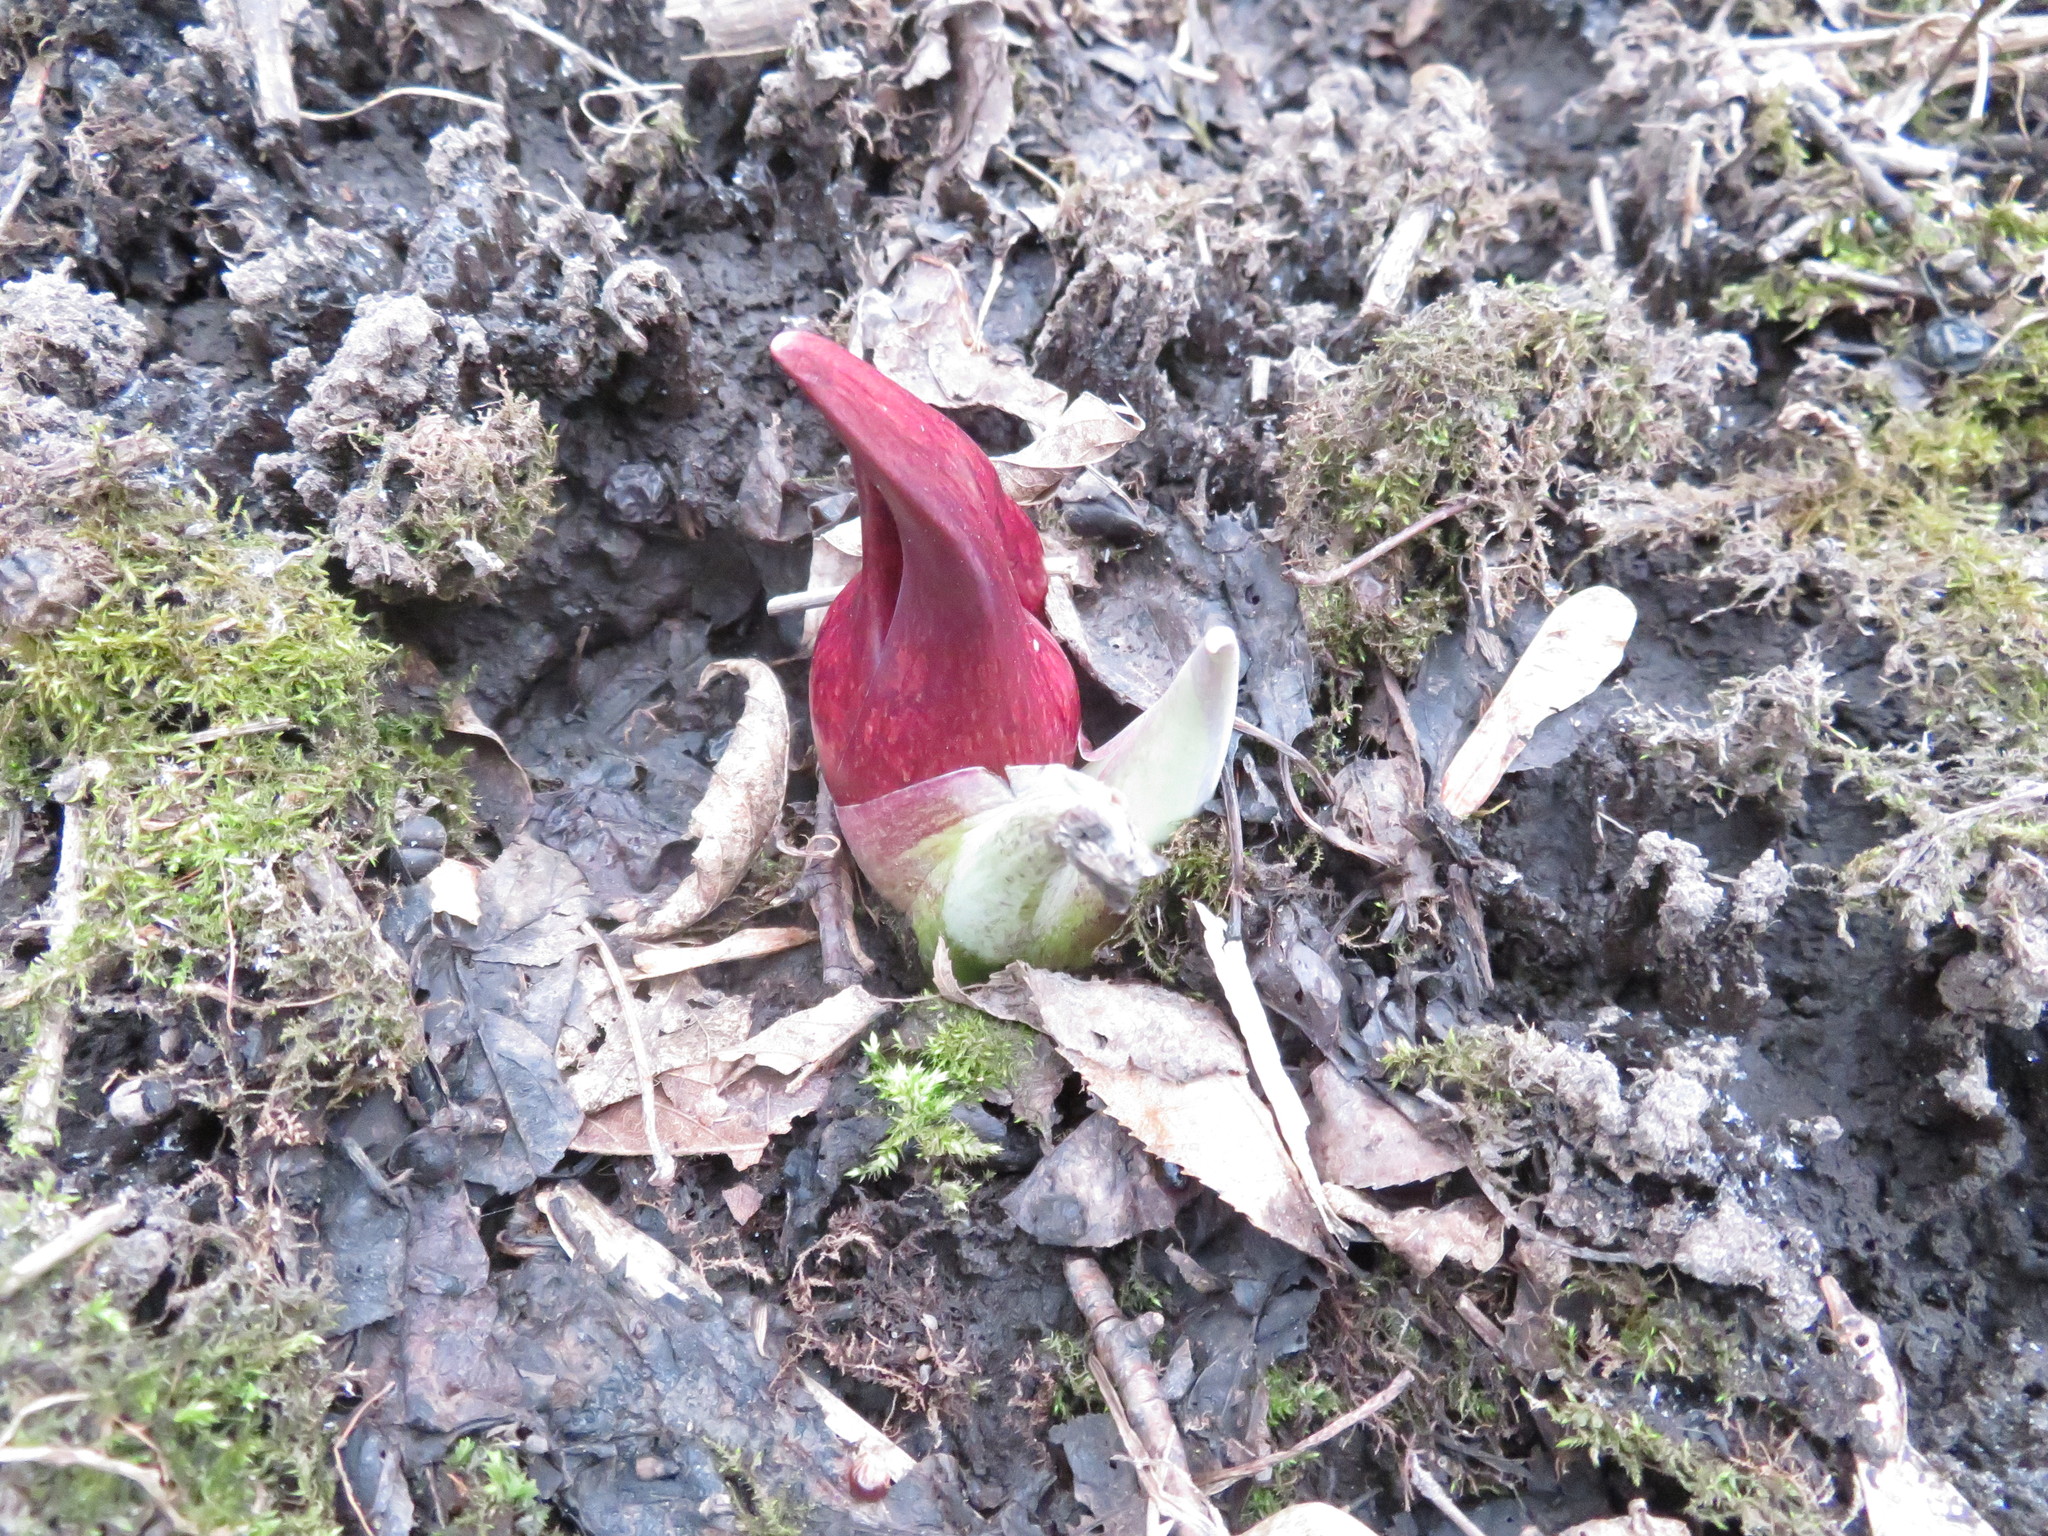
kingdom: Plantae
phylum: Tracheophyta
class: Liliopsida
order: Alismatales
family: Araceae
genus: Symplocarpus
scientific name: Symplocarpus foetidus
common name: Eastern skunk cabbage
